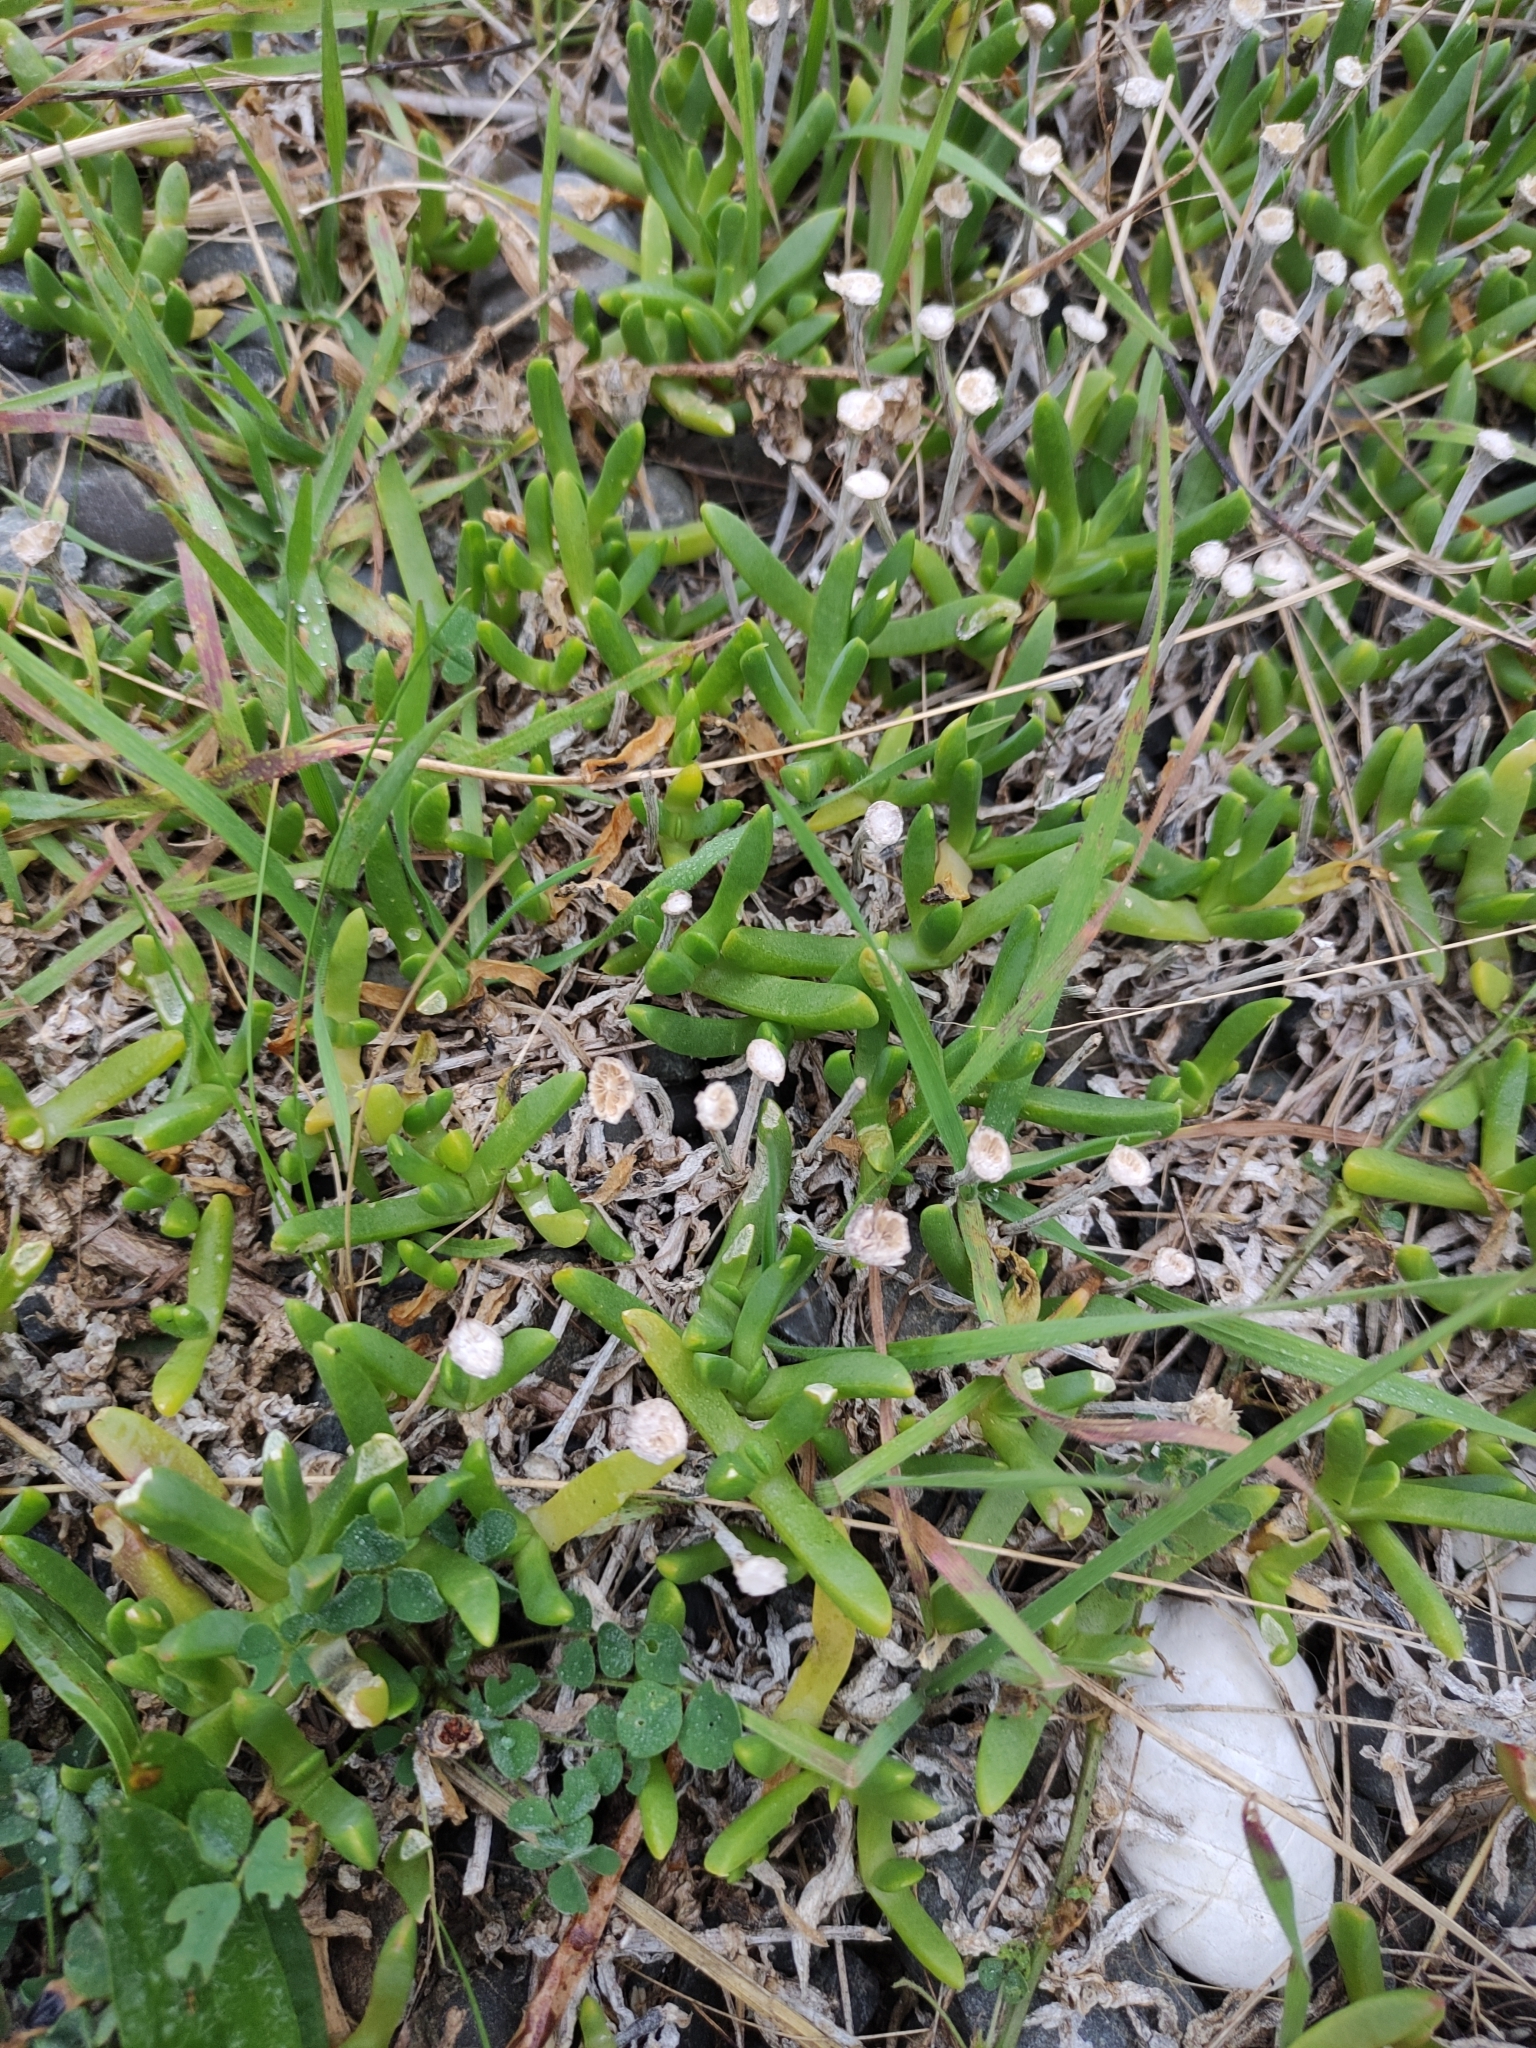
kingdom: Plantae
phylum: Tracheophyta
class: Magnoliopsida
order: Caryophyllales
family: Aizoaceae
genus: Disphyma
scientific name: Disphyma australe
